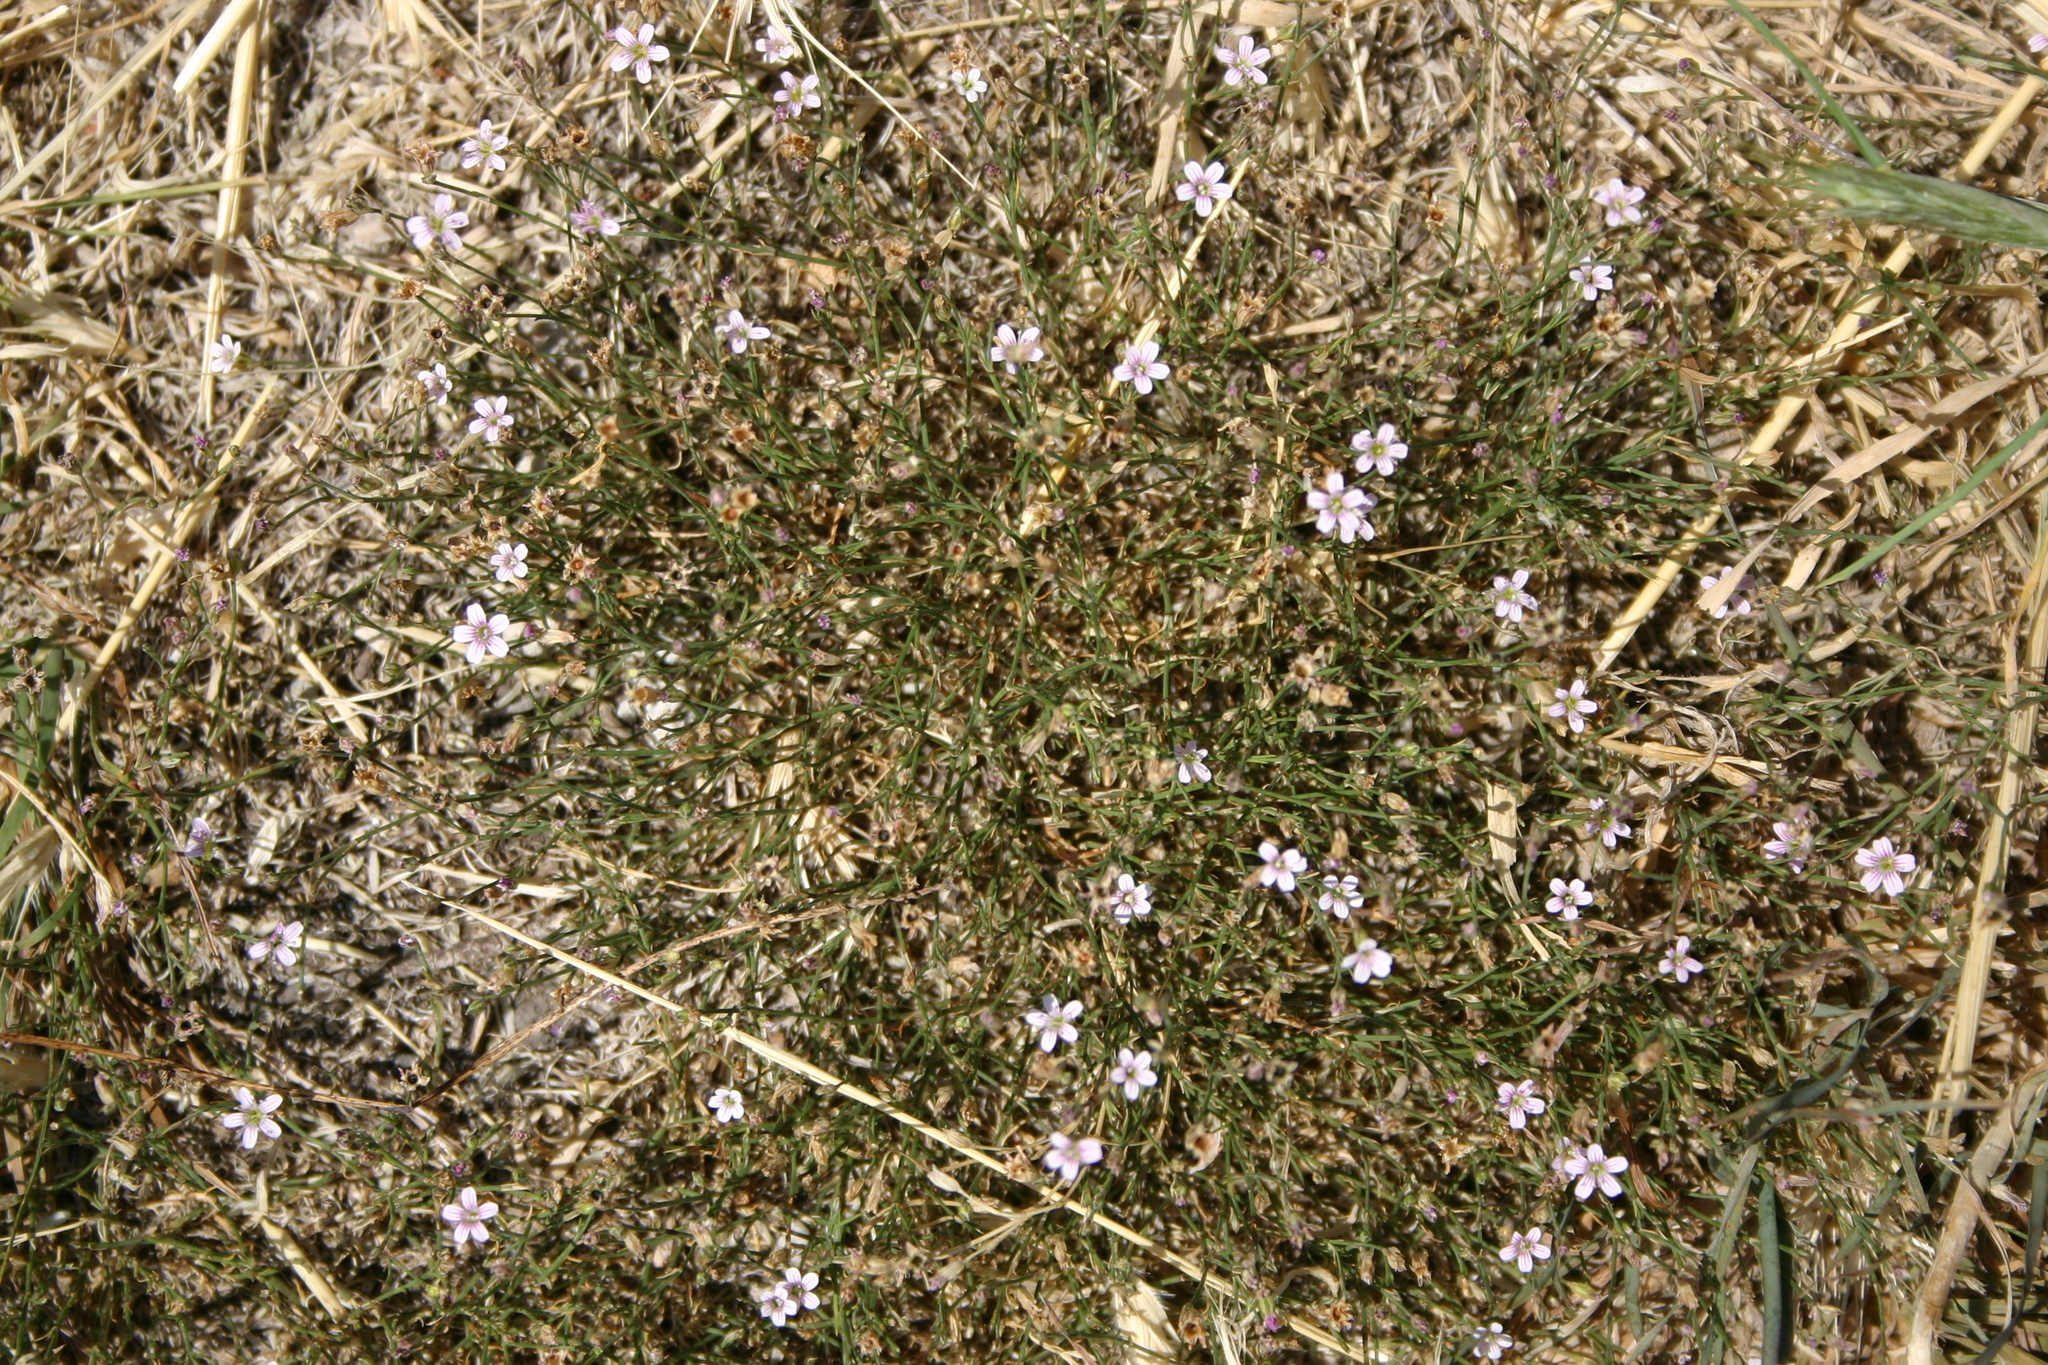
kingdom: Plantae
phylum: Tracheophyta
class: Magnoliopsida
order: Caryophyllales
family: Caryophyllaceae
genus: Petrorhagia
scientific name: Petrorhagia saxifraga
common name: Tunicflower
